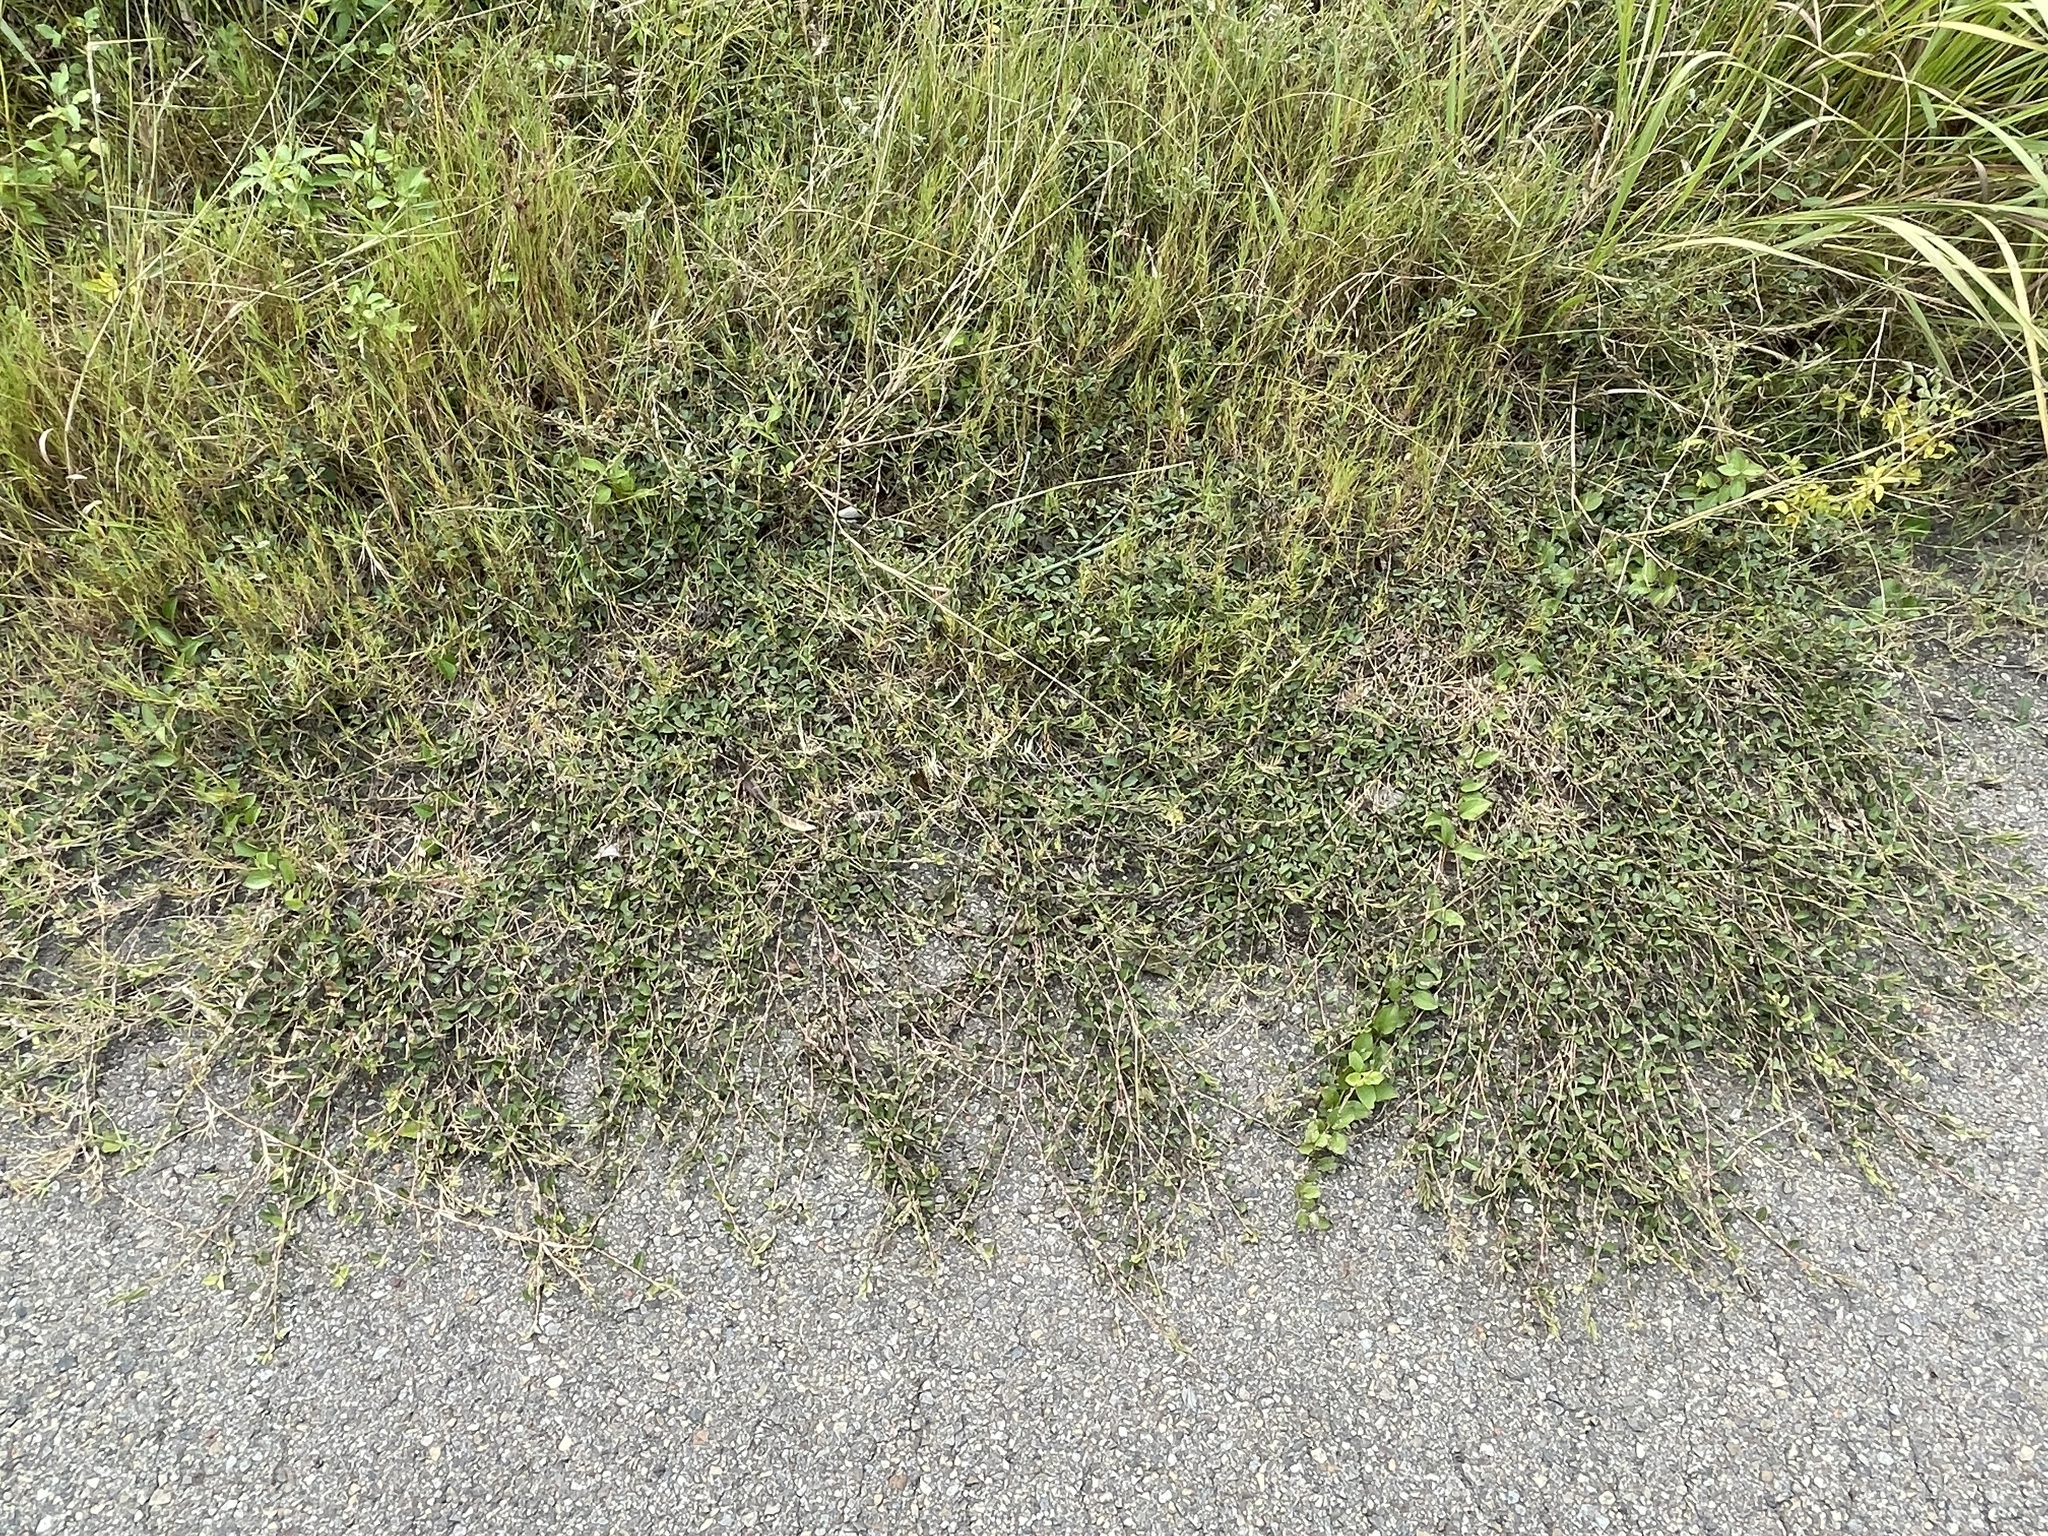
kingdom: Plantae
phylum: Tracheophyta
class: Magnoliopsida
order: Fabales
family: Fabaceae
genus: Alysicarpus
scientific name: Alysicarpus vaginalis
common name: White moneywort
